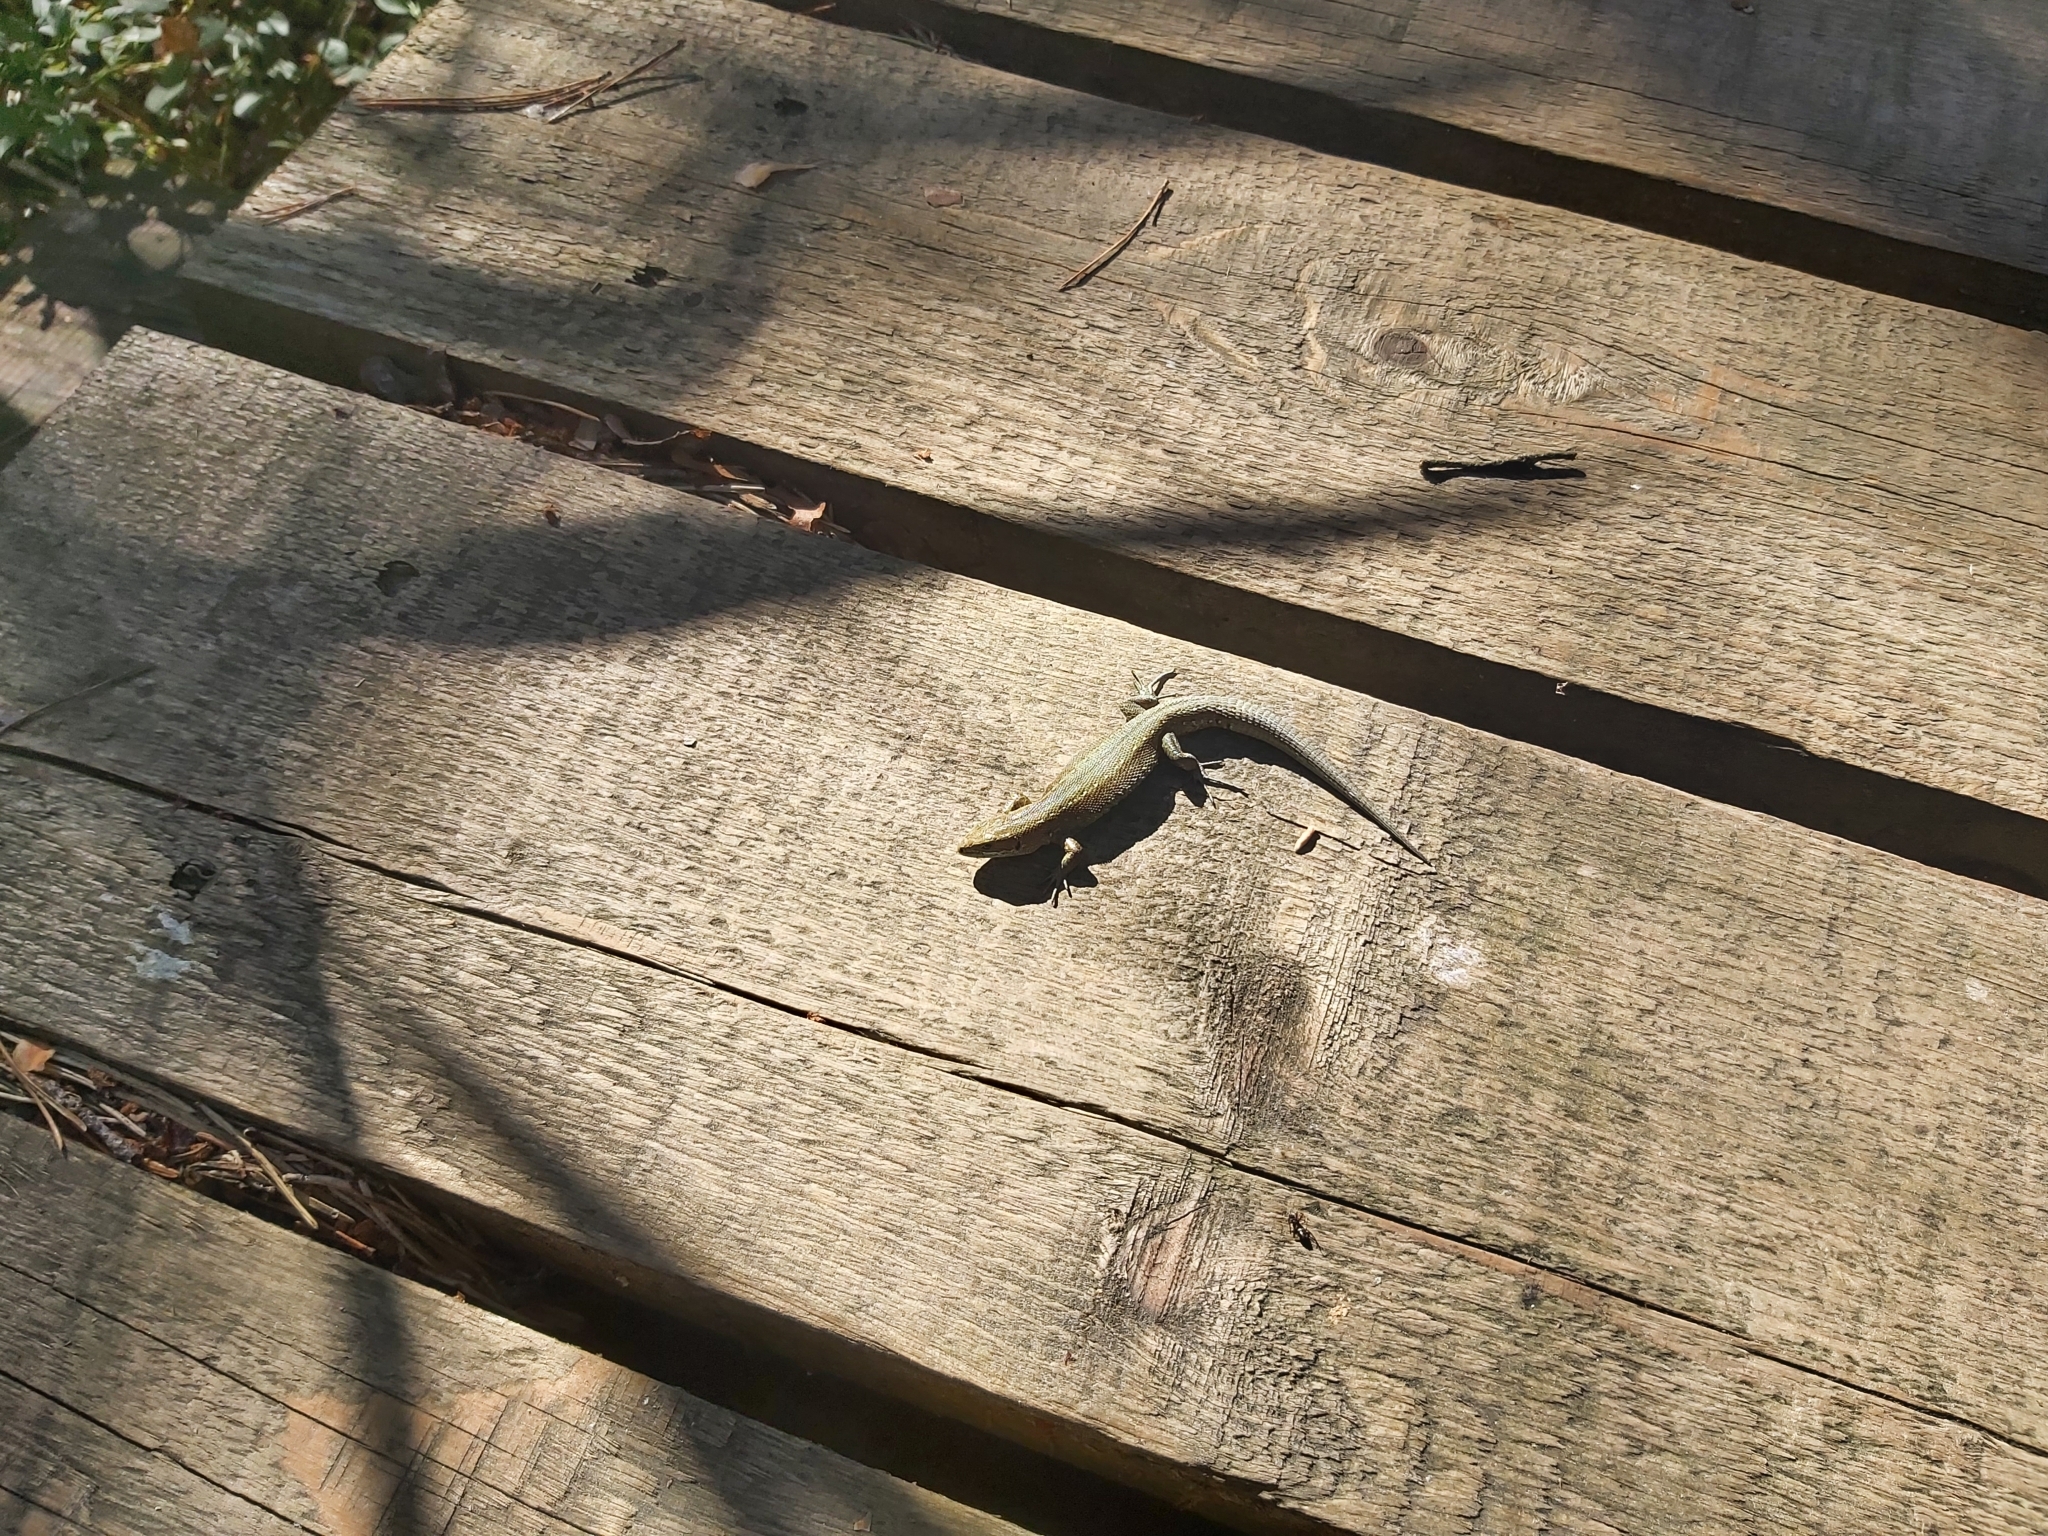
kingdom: Animalia
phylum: Chordata
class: Squamata
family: Lacertidae
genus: Zootoca
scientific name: Zootoca vivipara
